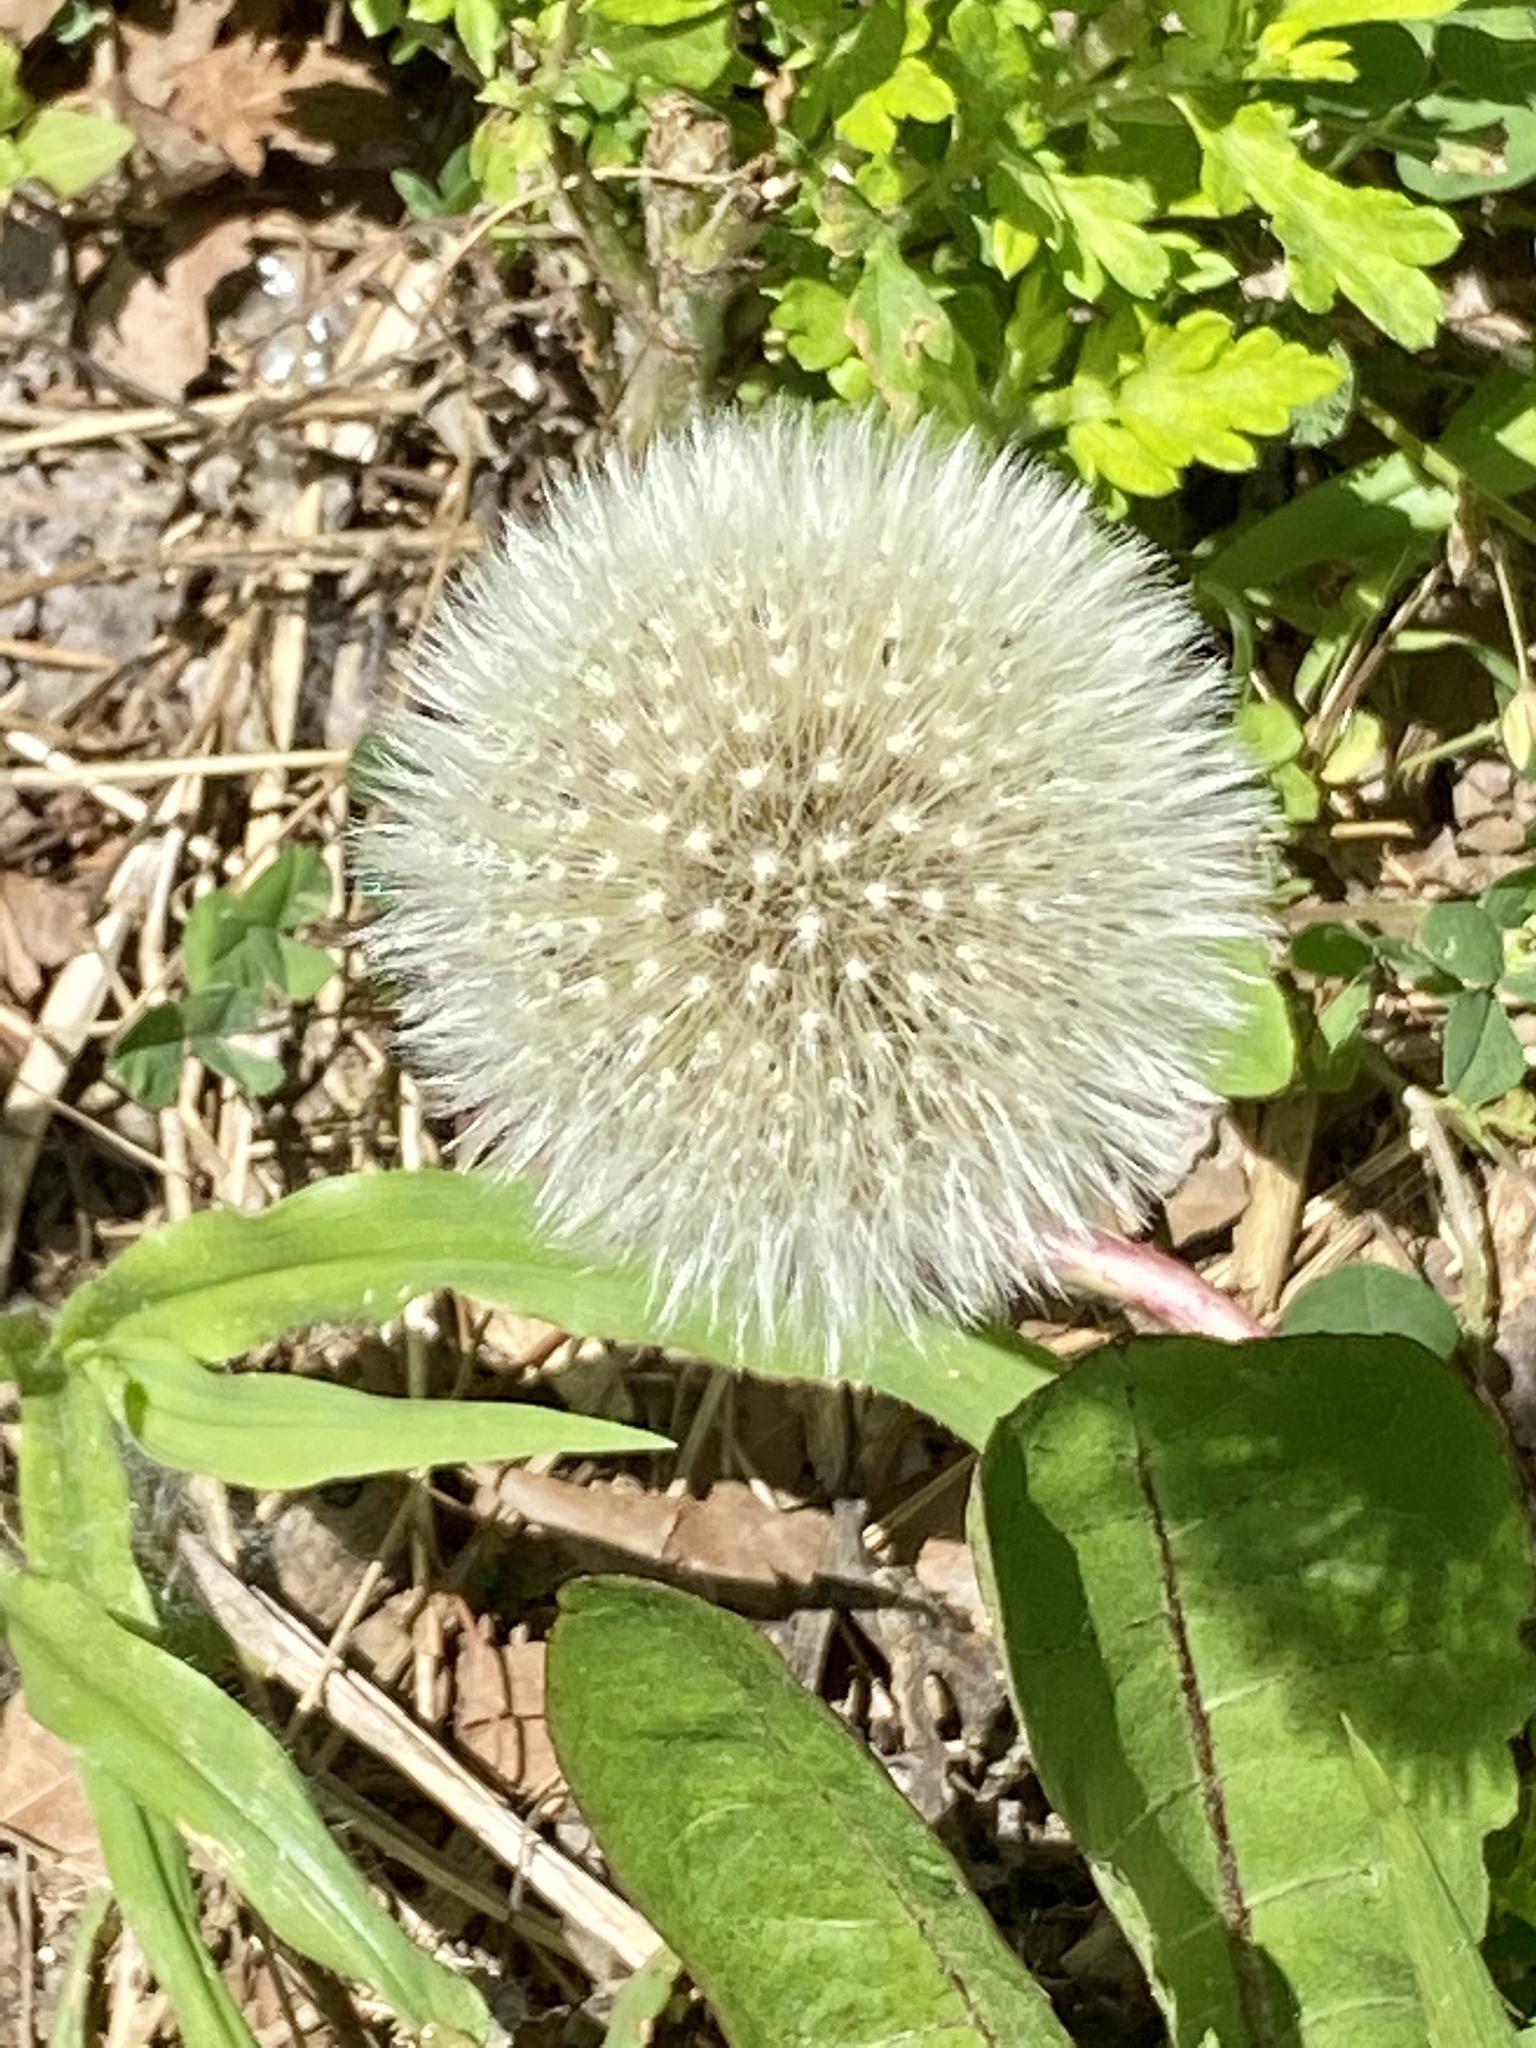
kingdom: Plantae
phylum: Tracheophyta
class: Magnoliopsida
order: Asterales
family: Asteraceae
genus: Taraxacum
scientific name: Taraxacum officinale
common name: Common dandelion
